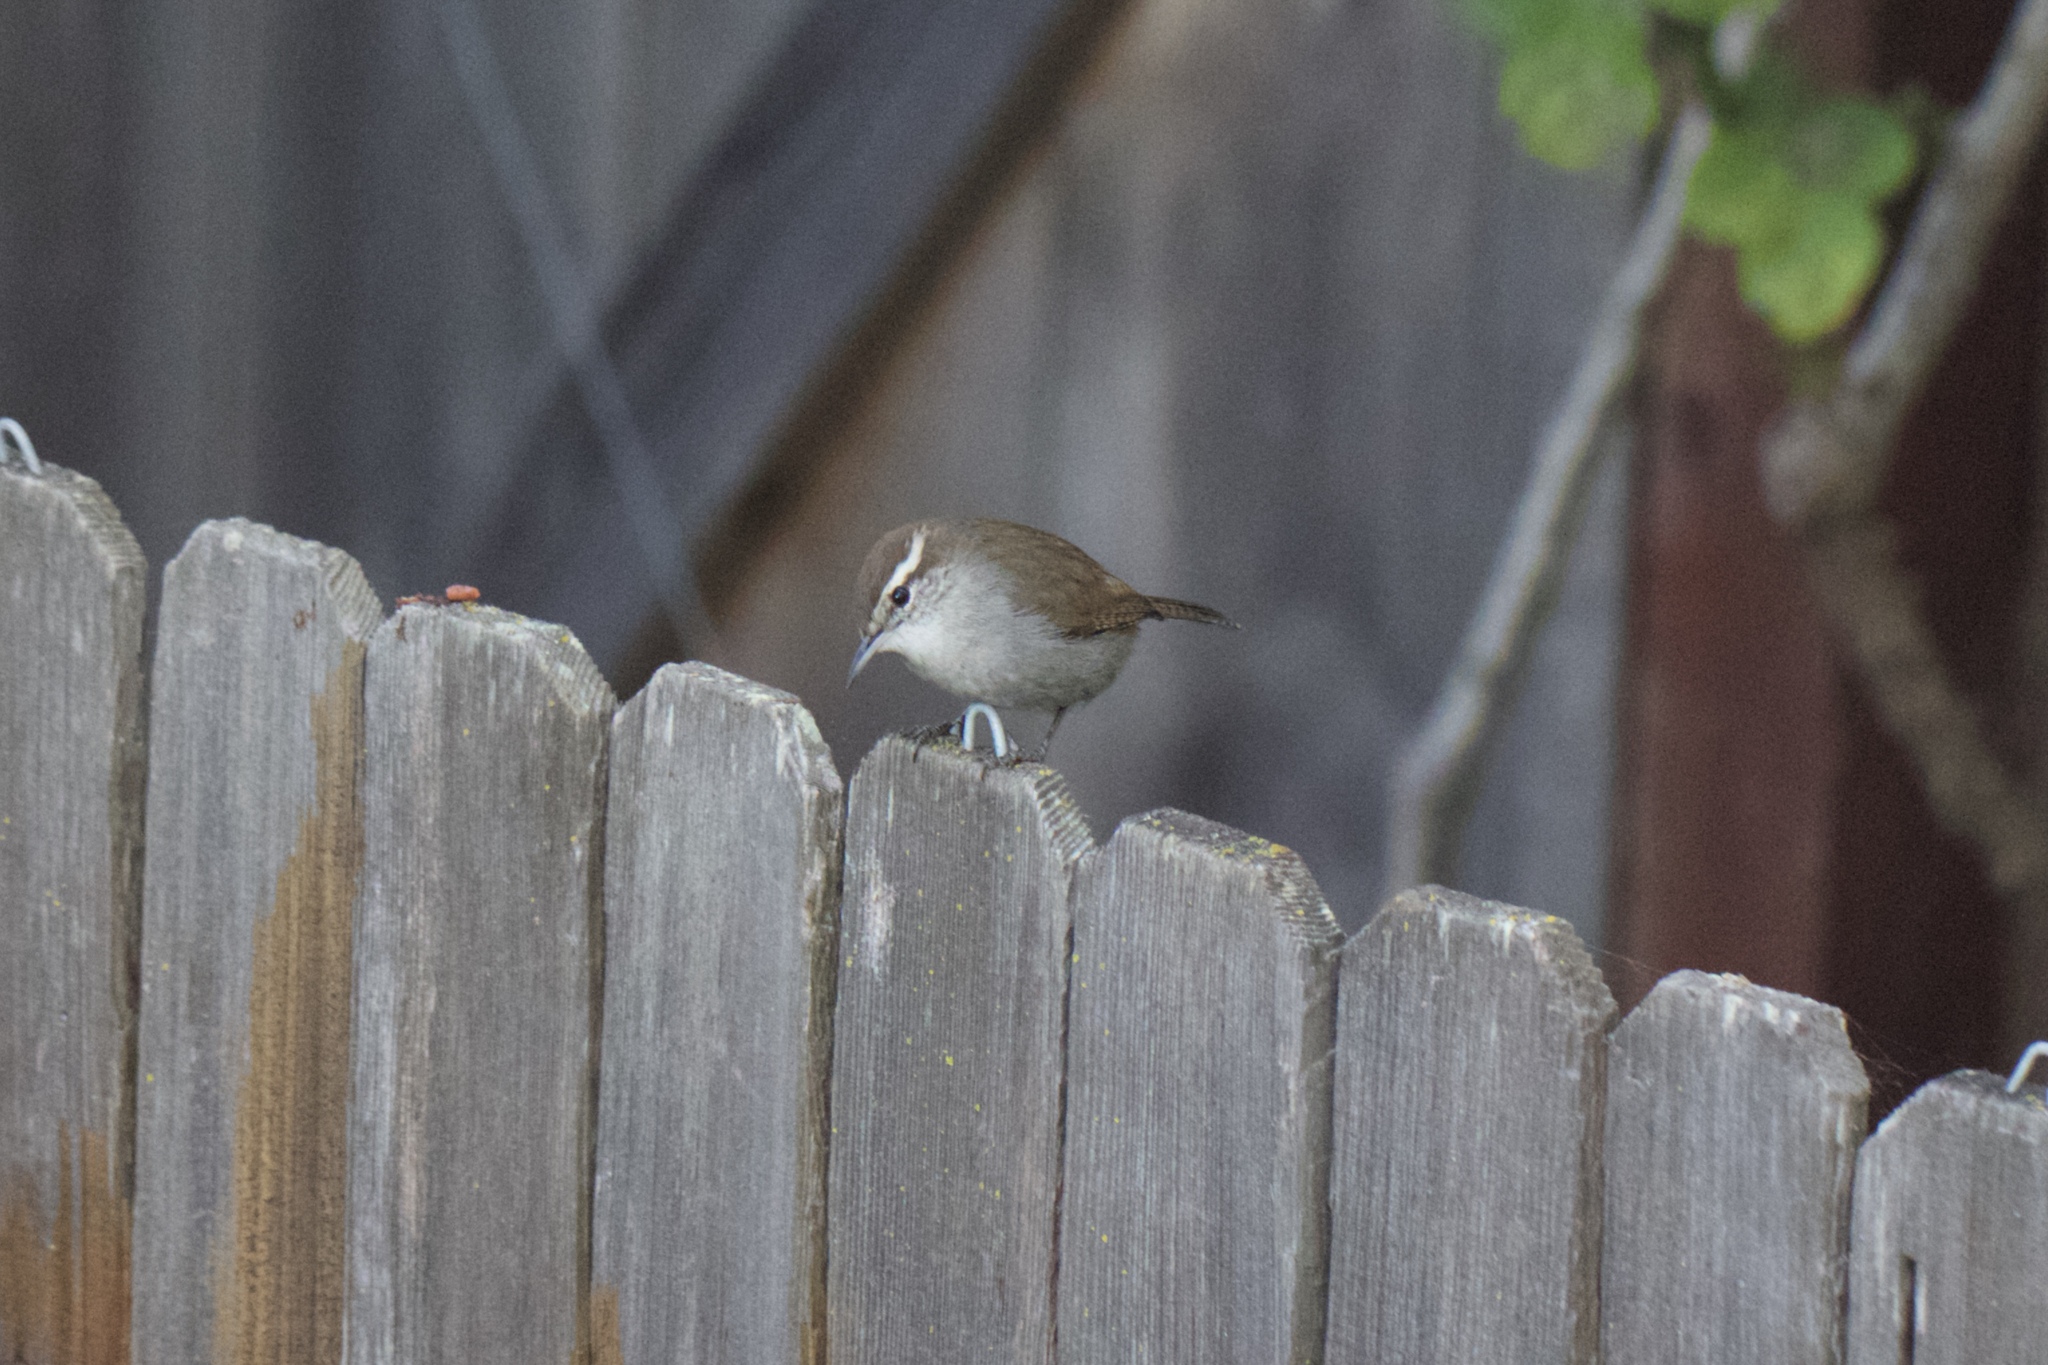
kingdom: Animalia
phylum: Chordata
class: Aves
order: Passeriformes
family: Troglodytidae
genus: Thryomanes
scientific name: Thryomanes bewickii
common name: Bewick's wren
